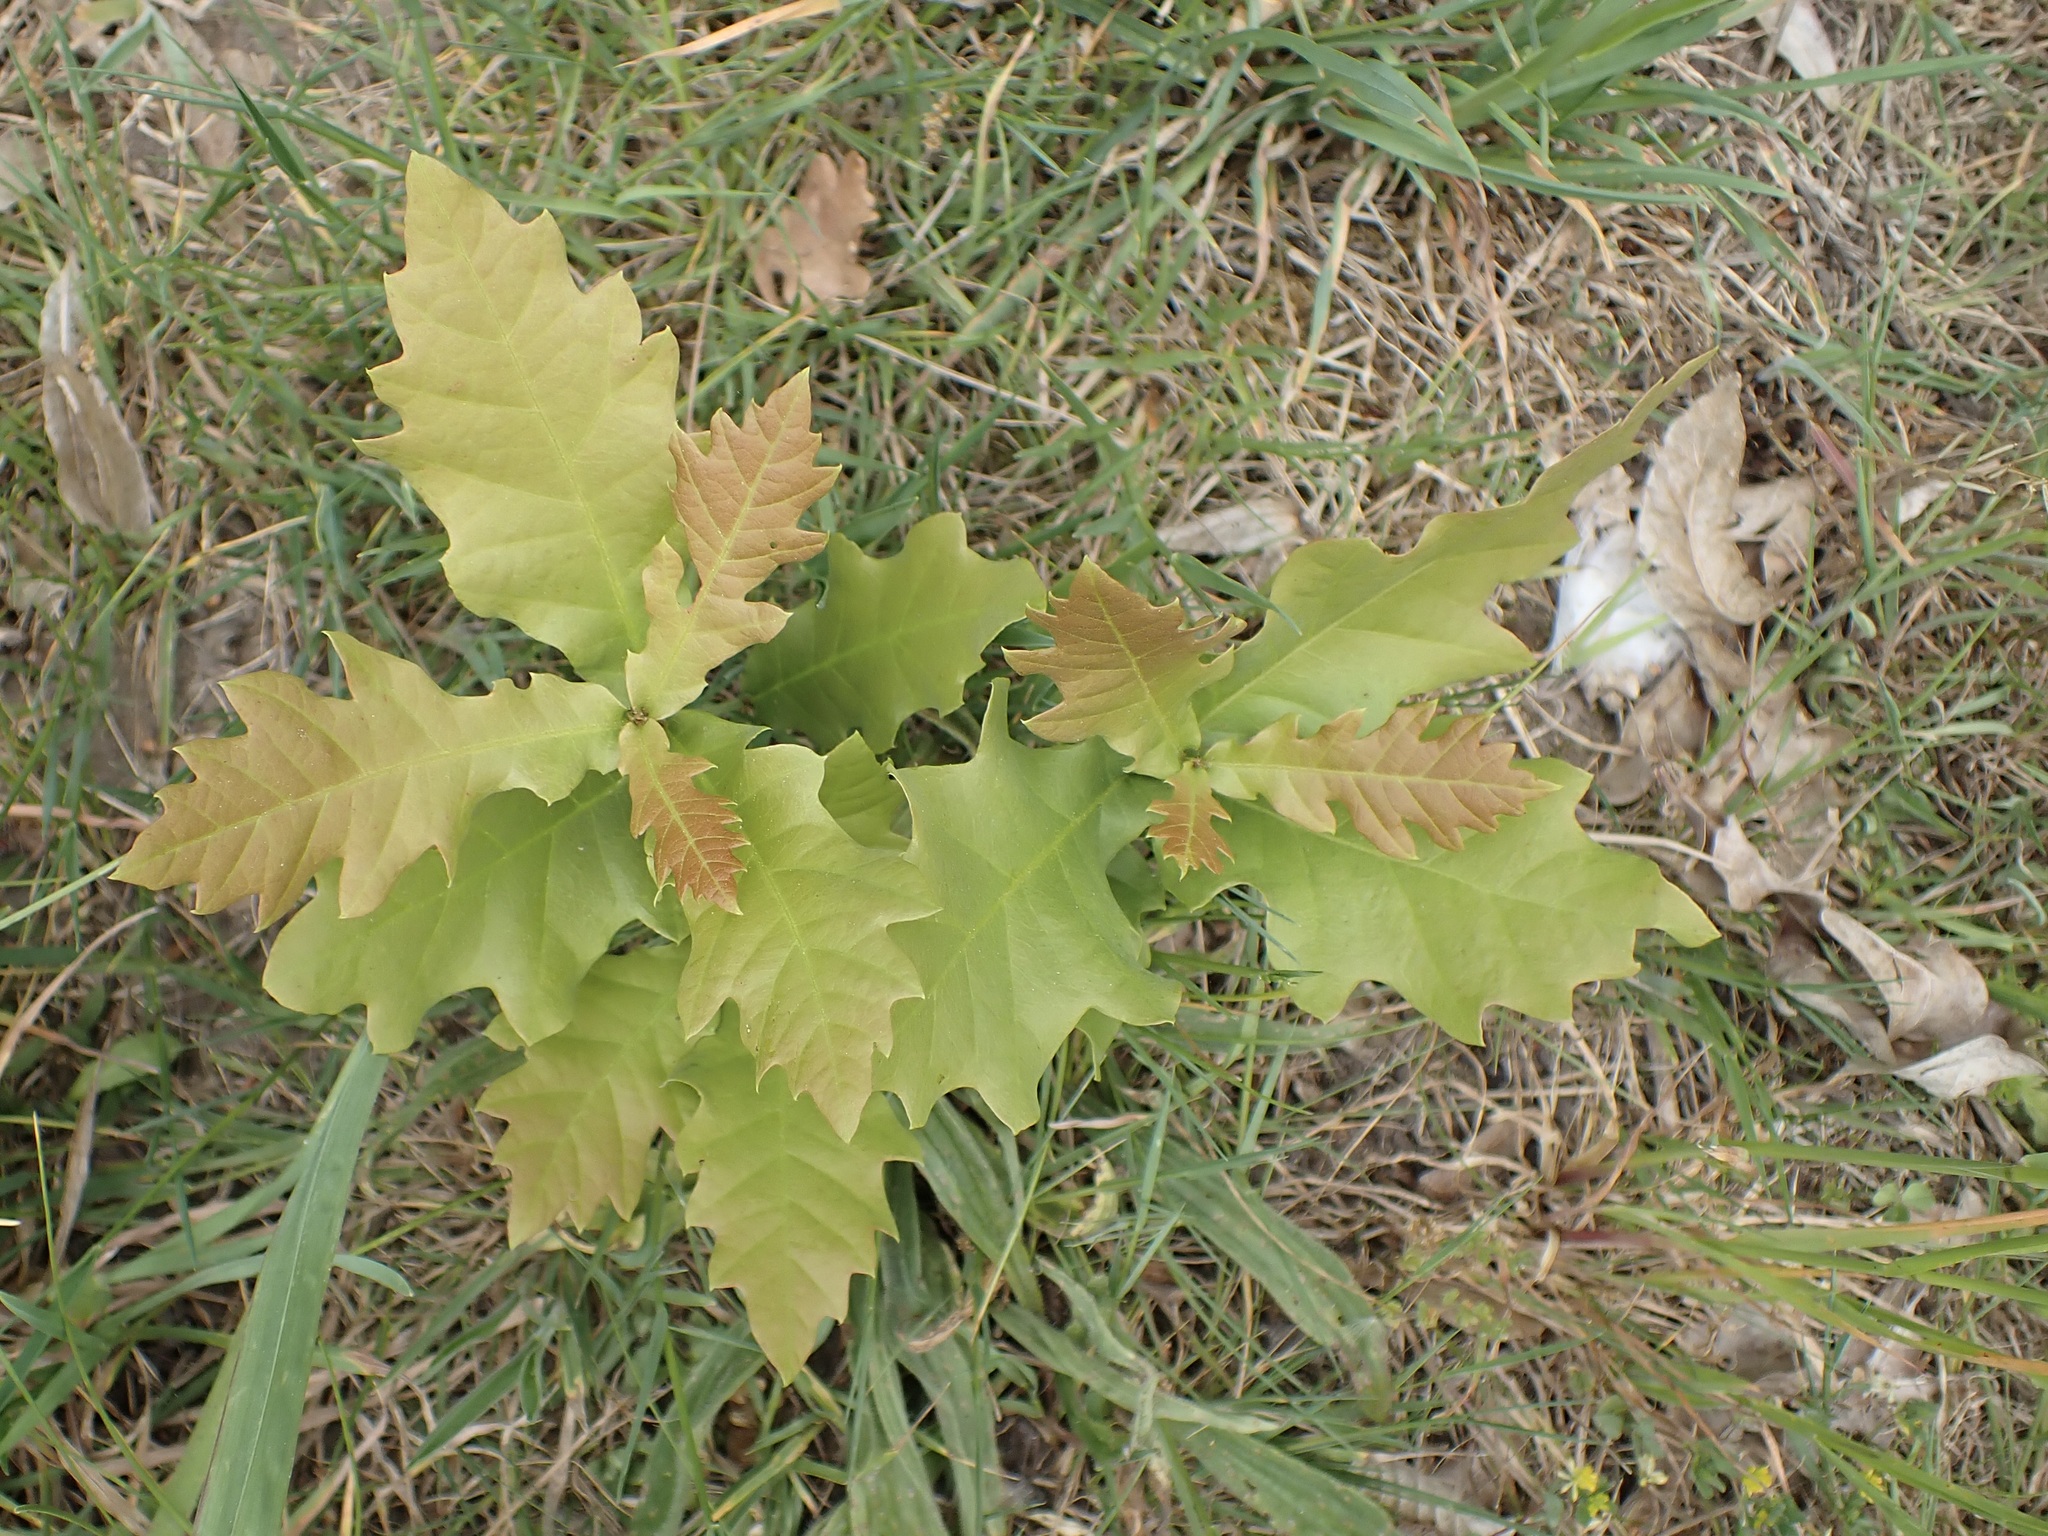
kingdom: Plantae
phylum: Tracheophyta
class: Magnoliopsida
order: Fagales
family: Fagaceae
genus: Quercus
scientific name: Quercus rubra
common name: Red oak
